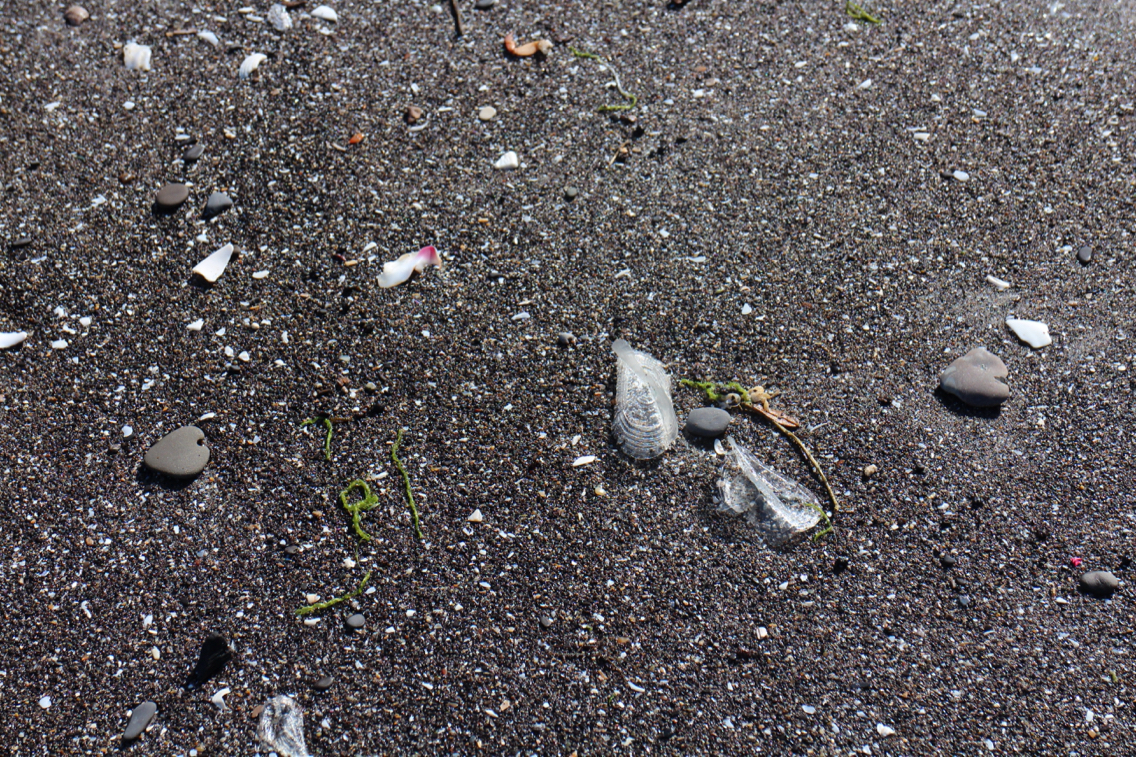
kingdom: Animalia
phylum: Cnidaria
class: Hydrozoa
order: Anthoathecata
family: Porpitidae
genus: Velella
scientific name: Velella velella
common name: By-the-wind-sailor
